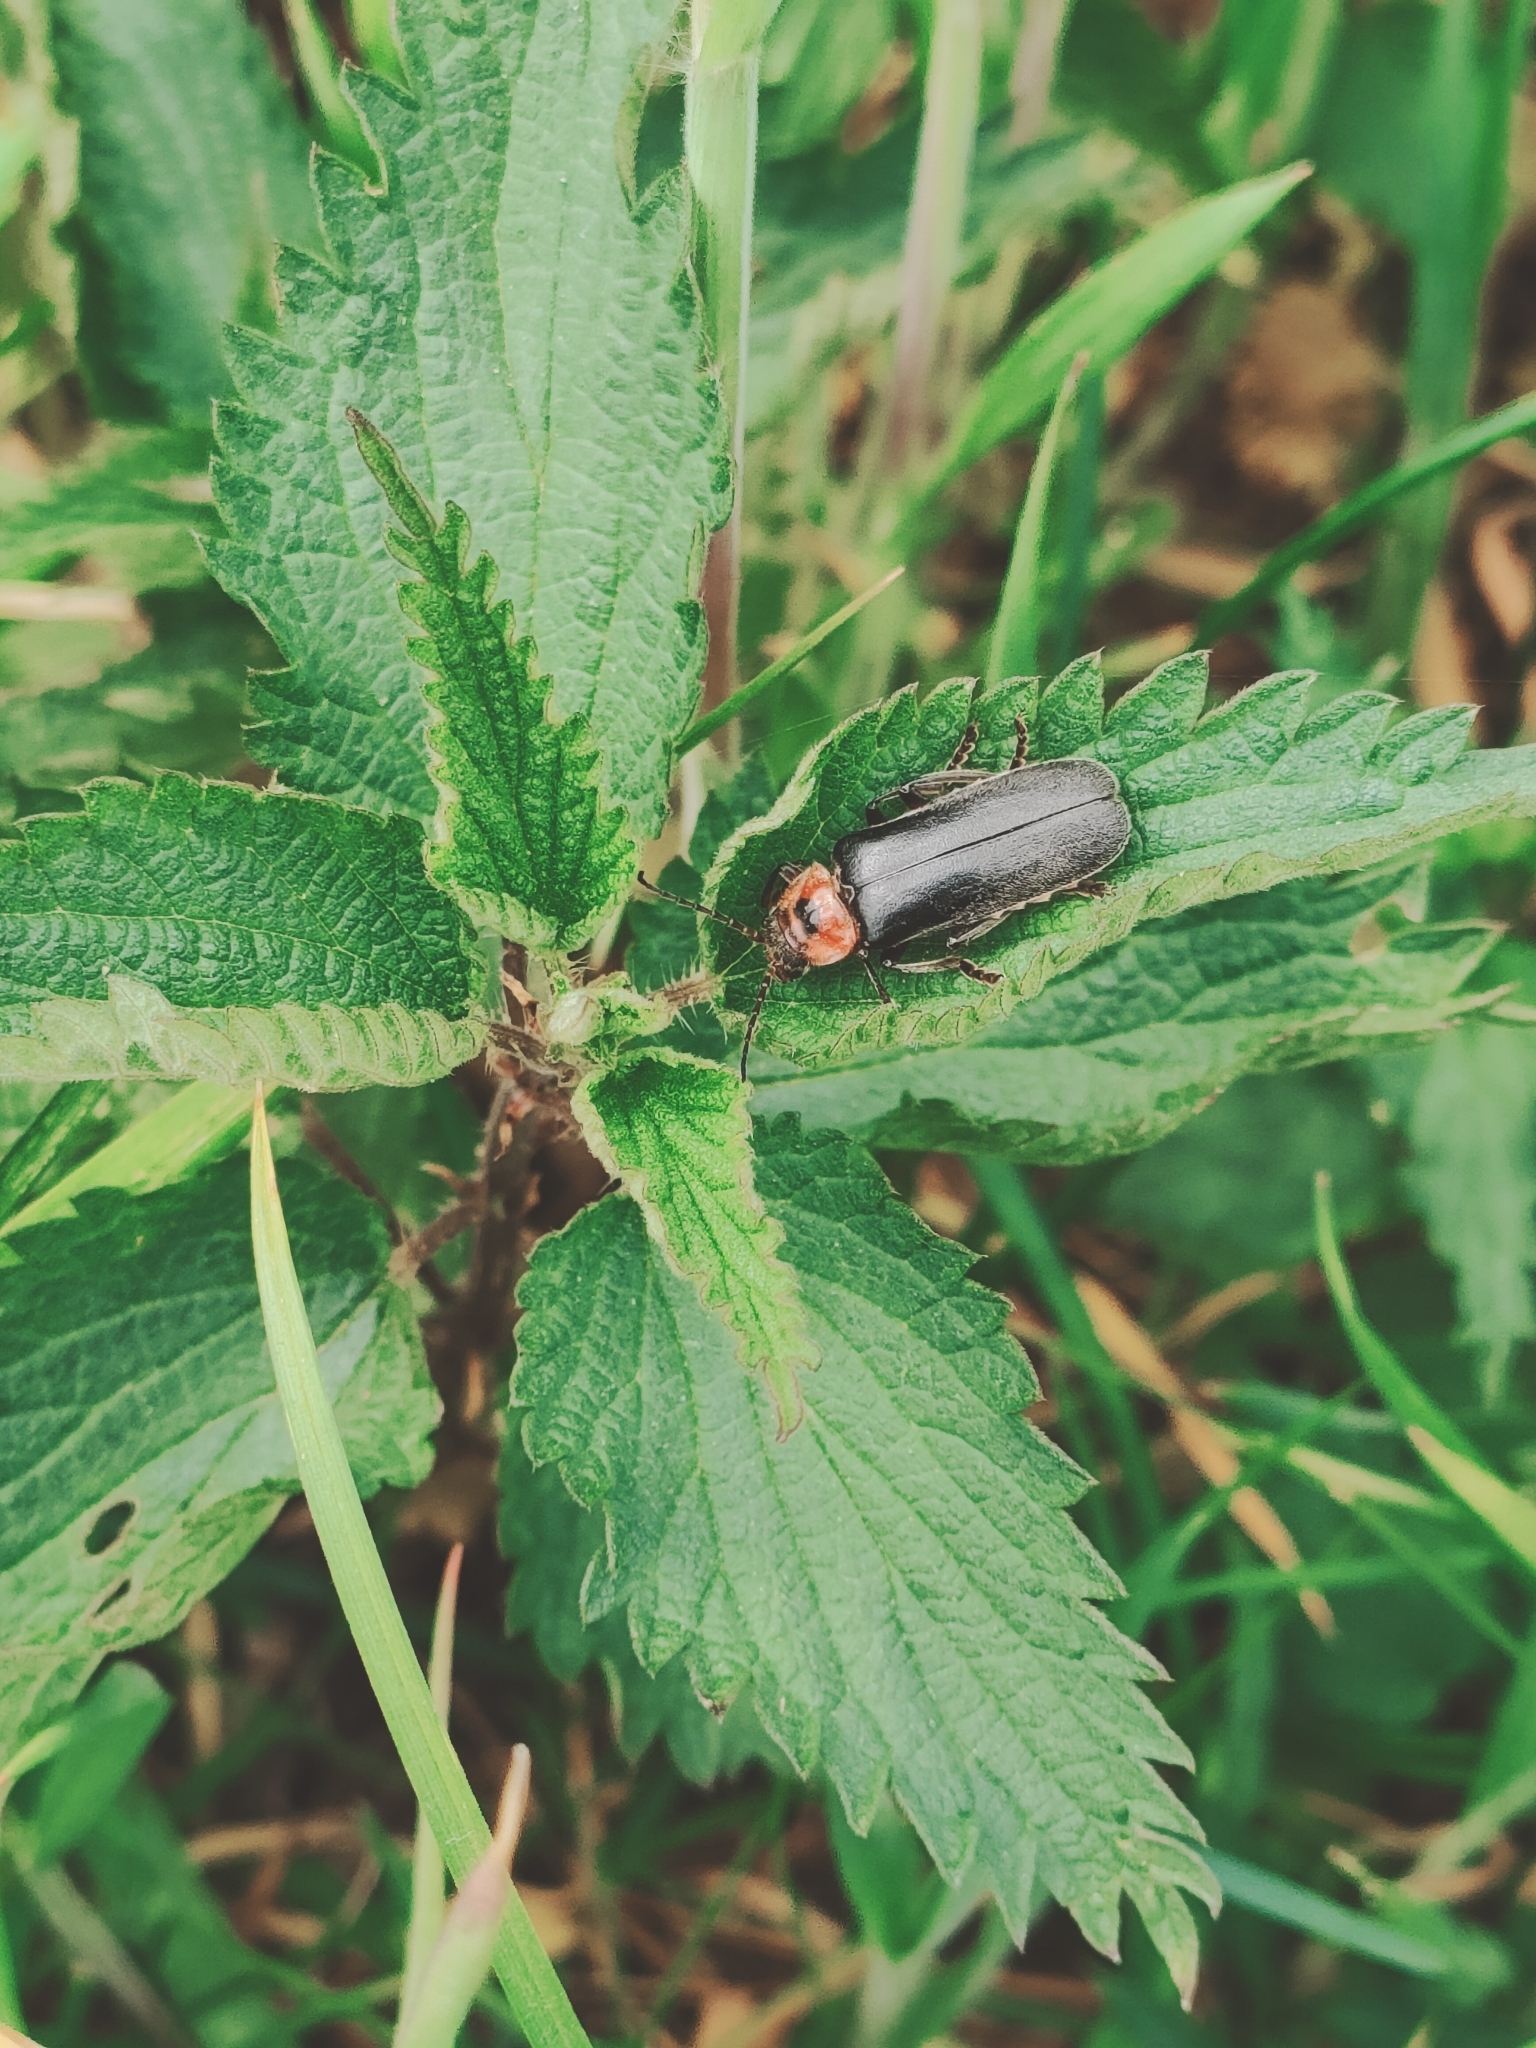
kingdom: Animalia
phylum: Arthropoda
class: Insecta
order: Coleoptera
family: Cantharidae
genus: Cantharis
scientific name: Cantharis rustica
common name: Soldier beetle
